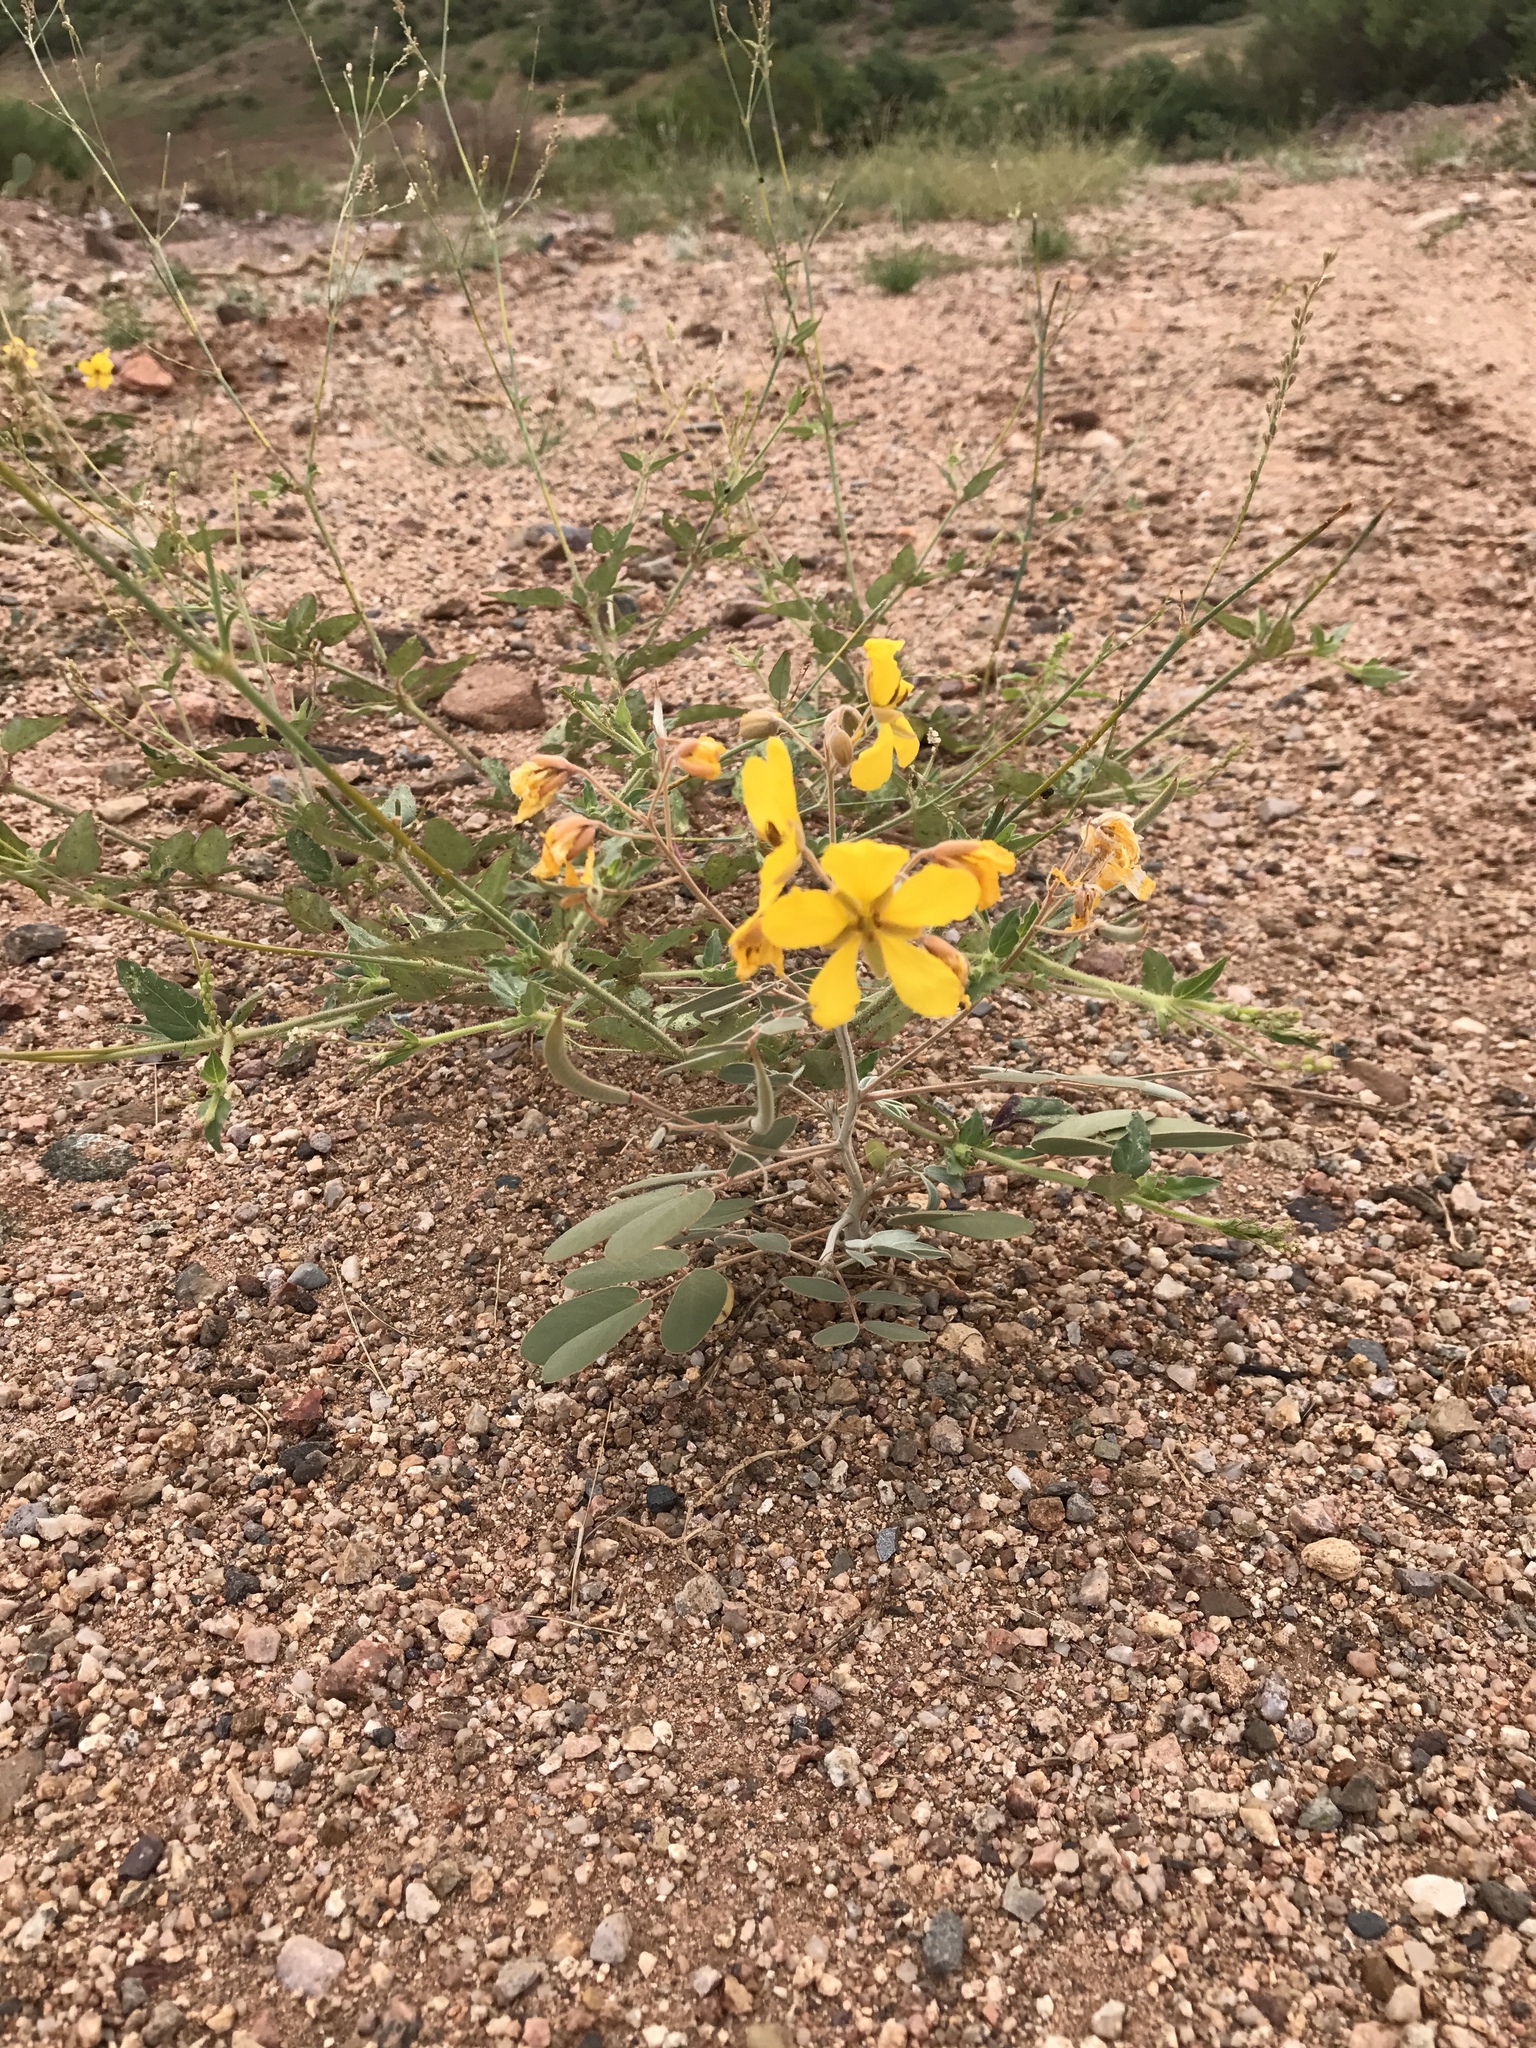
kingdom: Plantae
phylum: Tracheophyta
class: Magnoliopsida
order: Fabales
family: Fabaceae
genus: Senna
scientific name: Senna covesii
